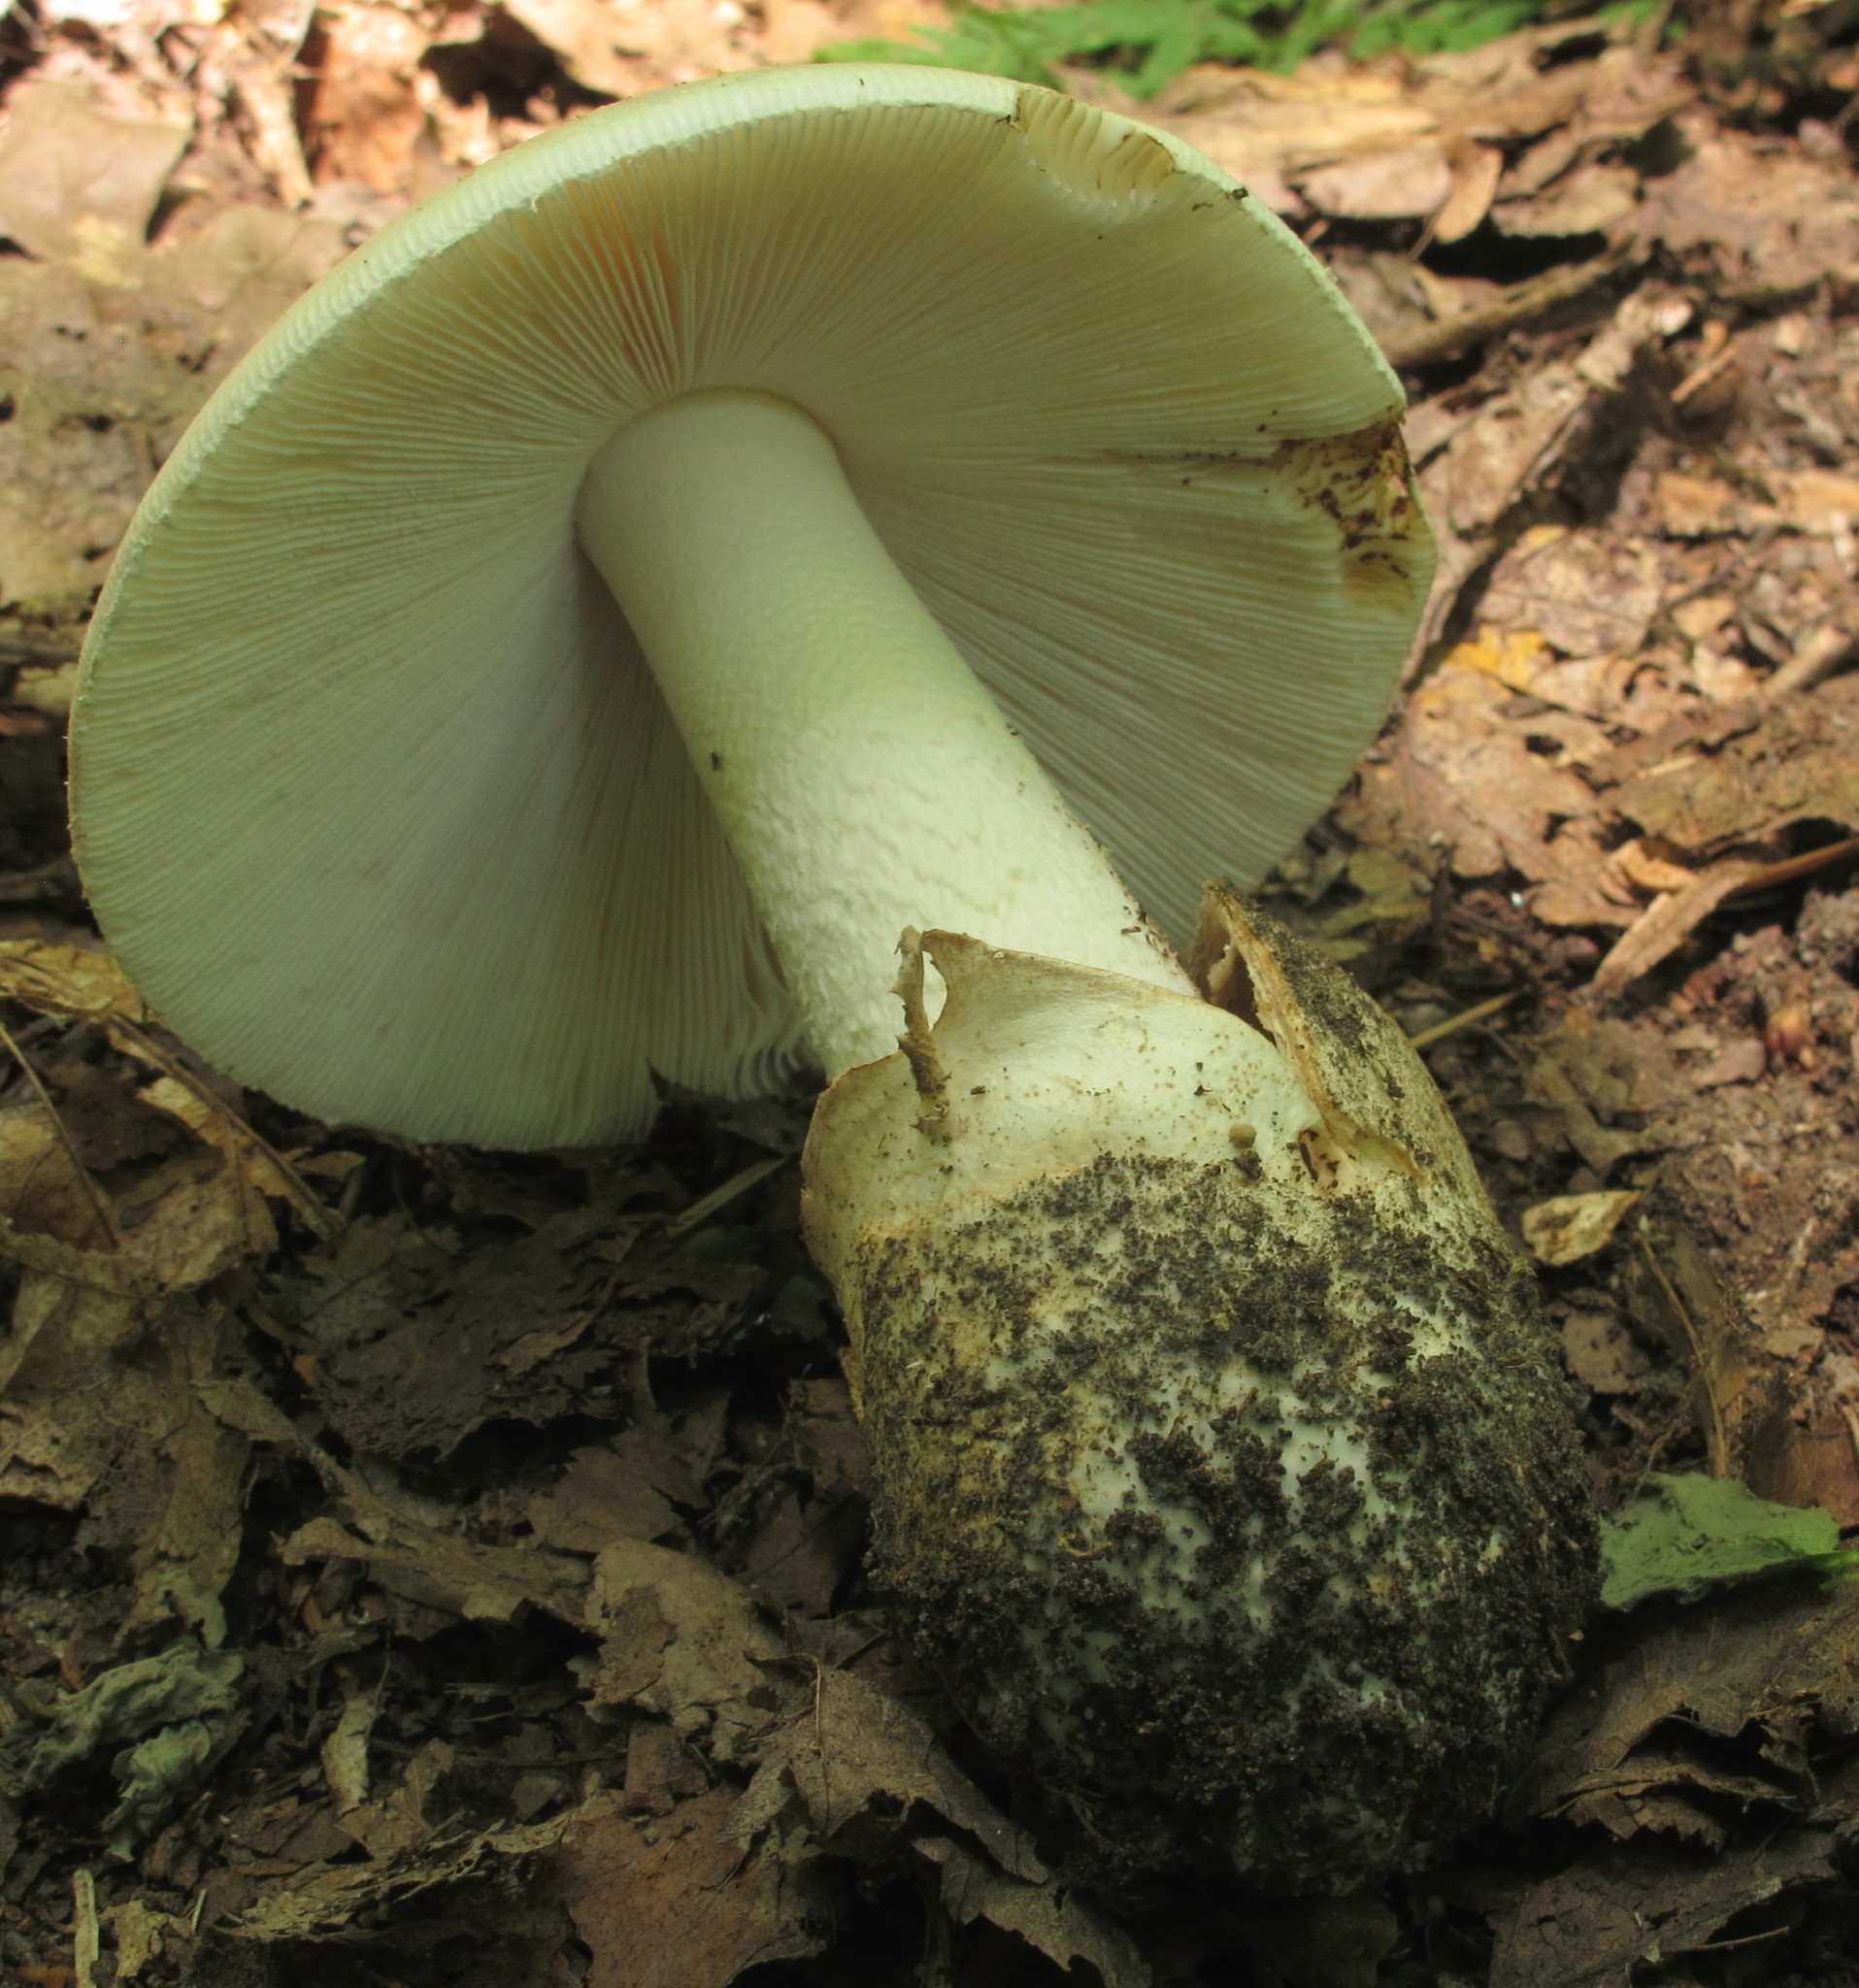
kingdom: Fungi
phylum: Basidiomycota
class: Agaricomycetes
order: Agaricales
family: Amanitaceae
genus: Amanita
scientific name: Amanita volvata
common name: American amidella
